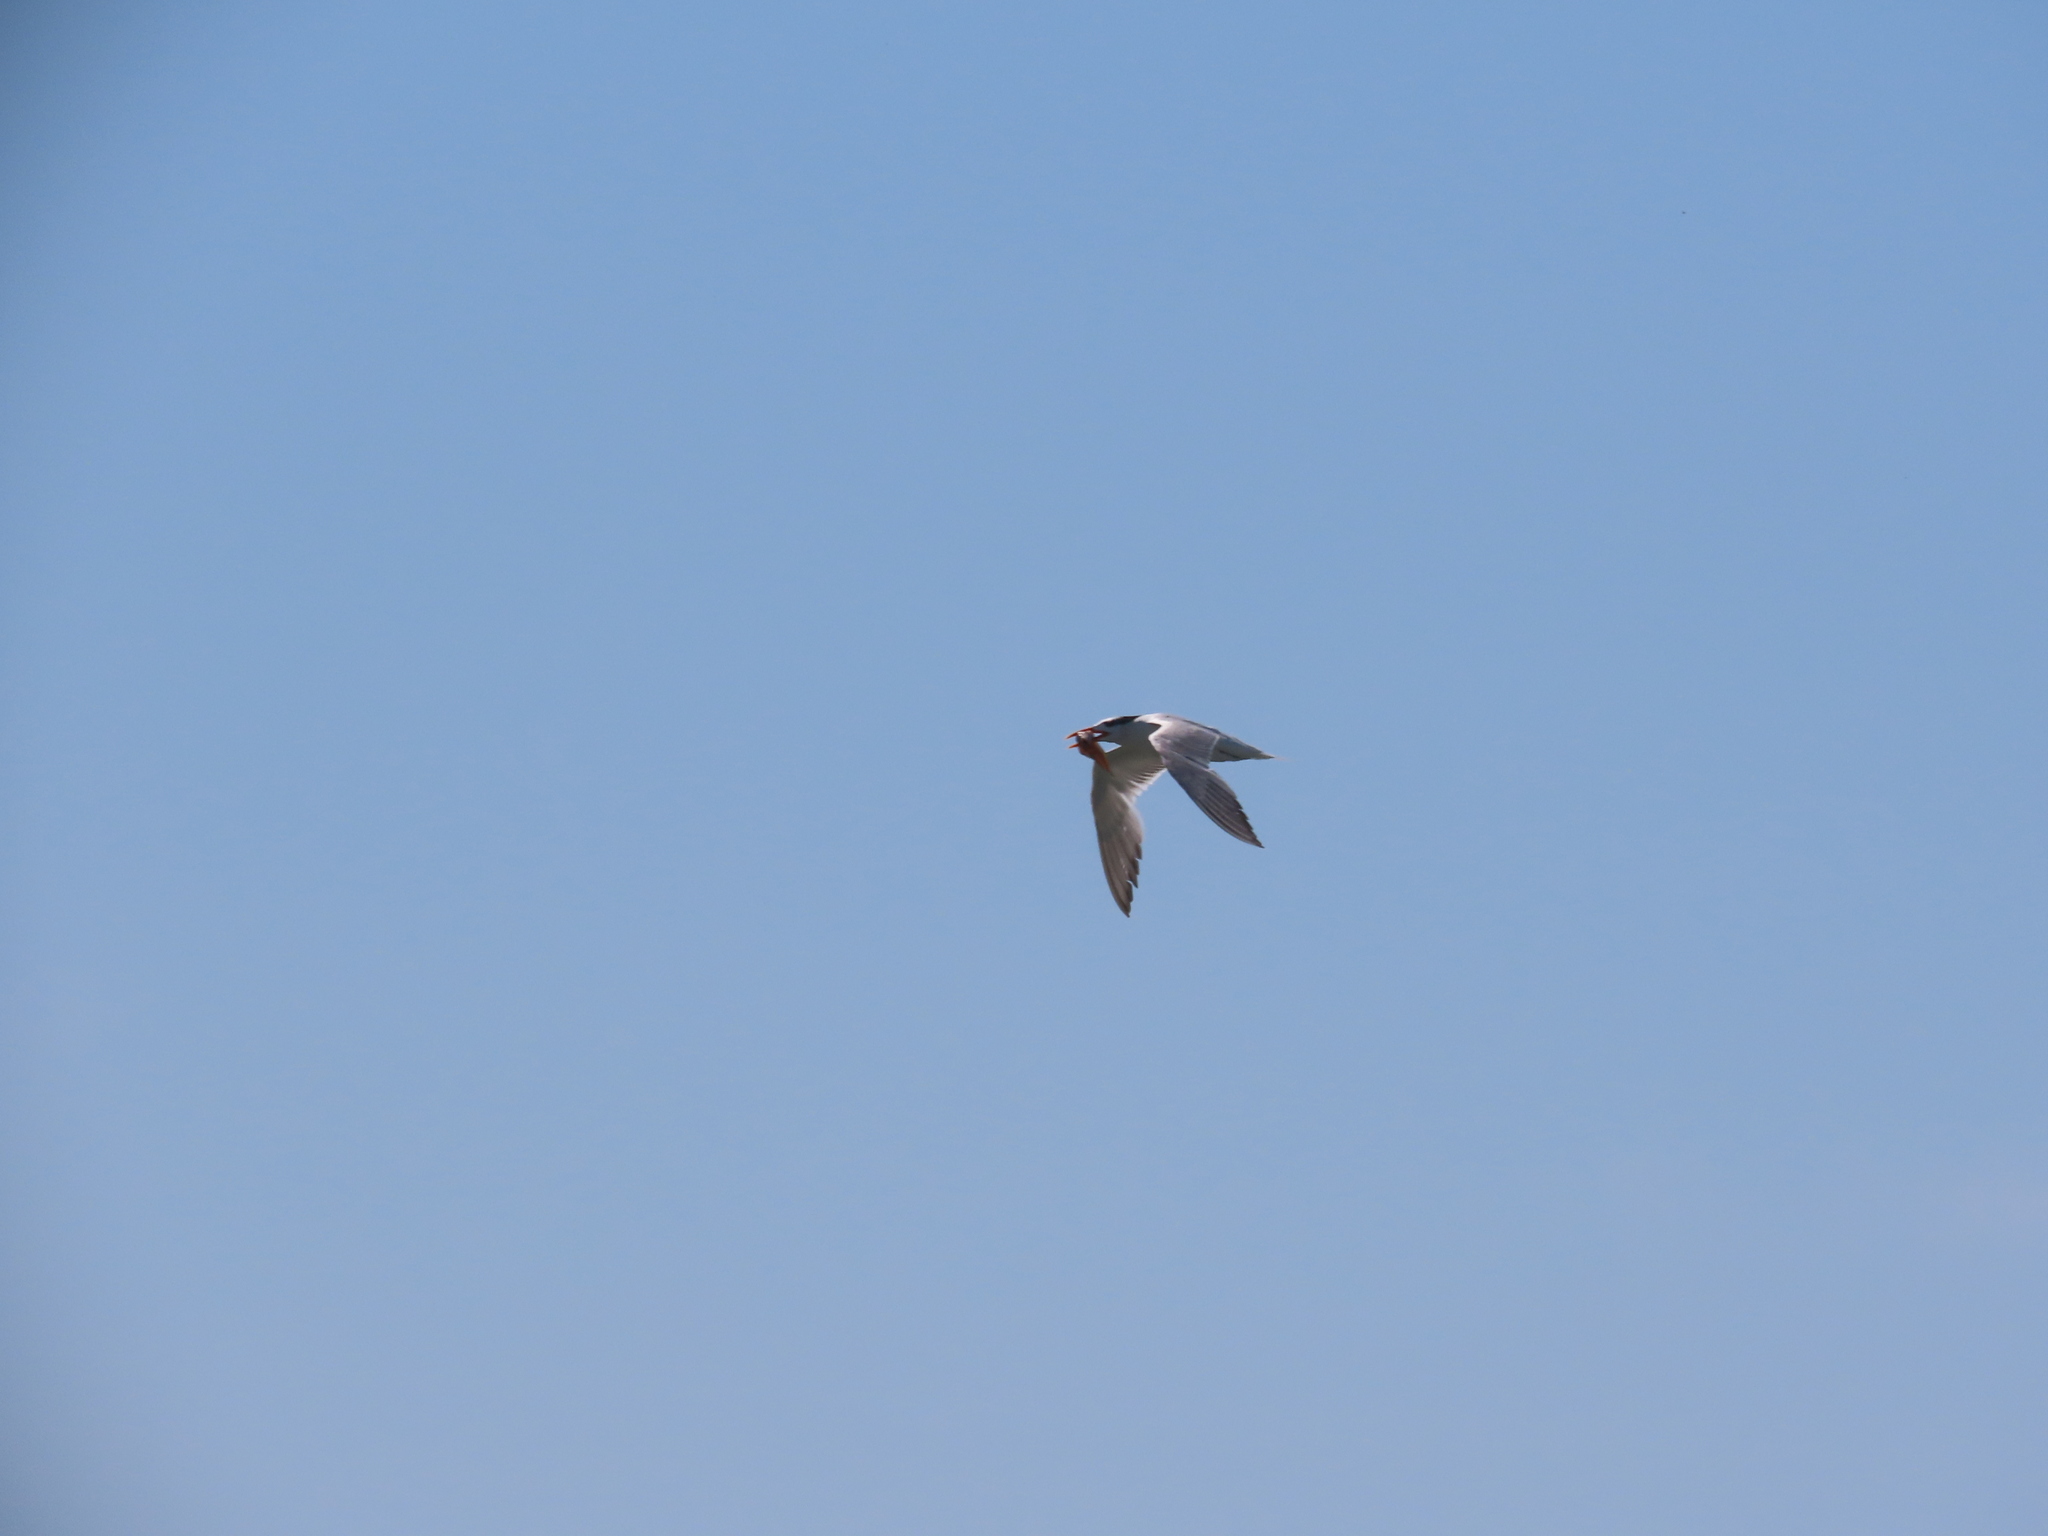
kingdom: Animalia
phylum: Chordata
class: Aves
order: Charadriiformes
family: Laridae
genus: Thalasseus
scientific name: Thalasseus maximus
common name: Royal tern
